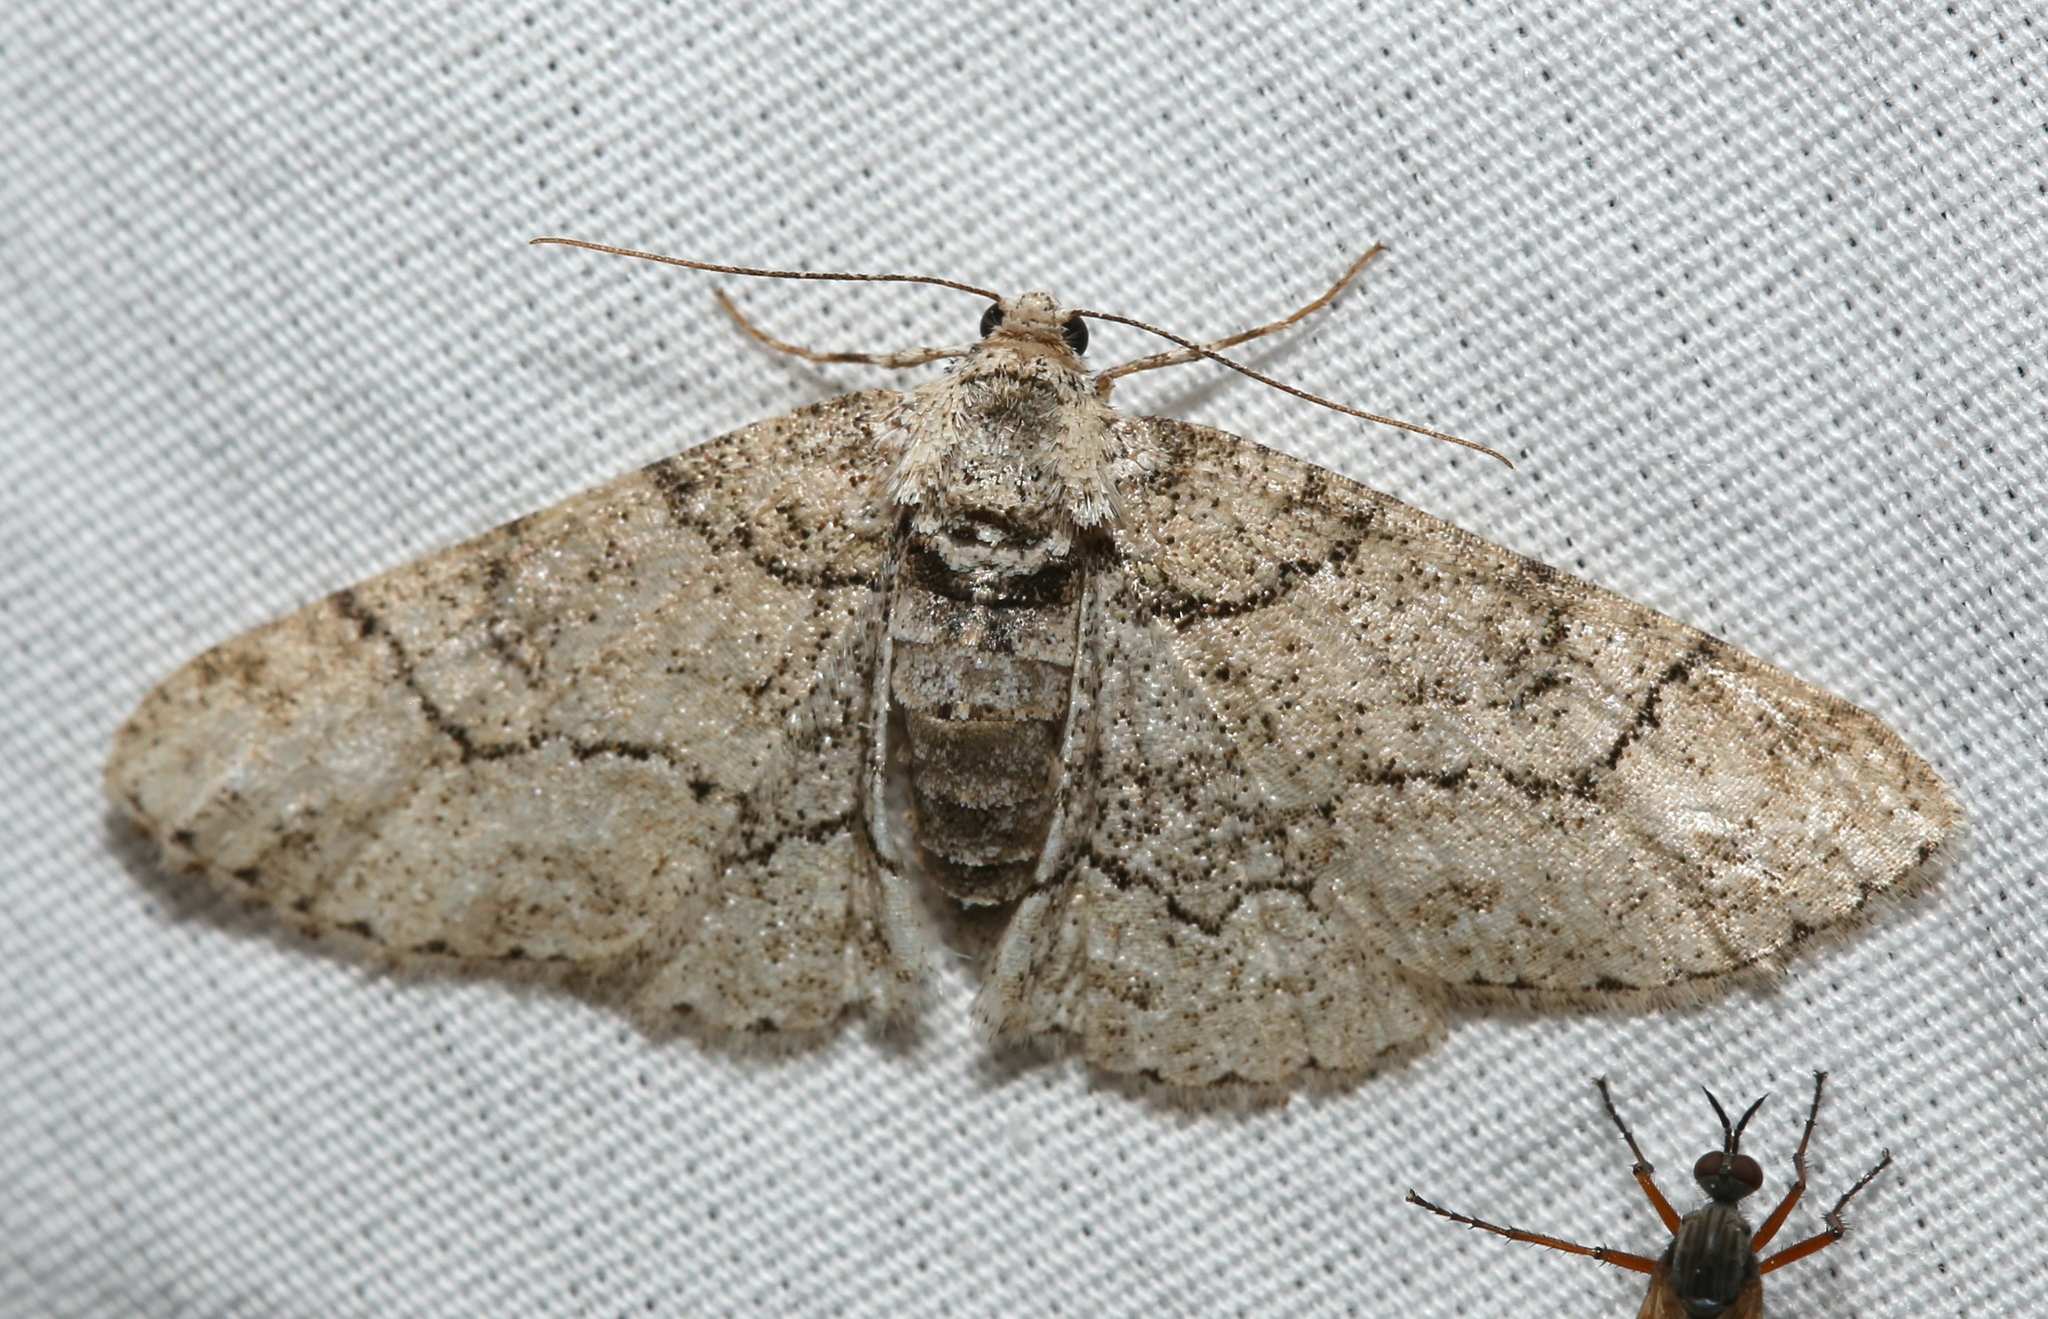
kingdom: Animalia
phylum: Arthropoda
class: Insecta
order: Lepidoptera
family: Geometridae
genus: Cleora
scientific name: Cleora sublunaria
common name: Double-lined gray
